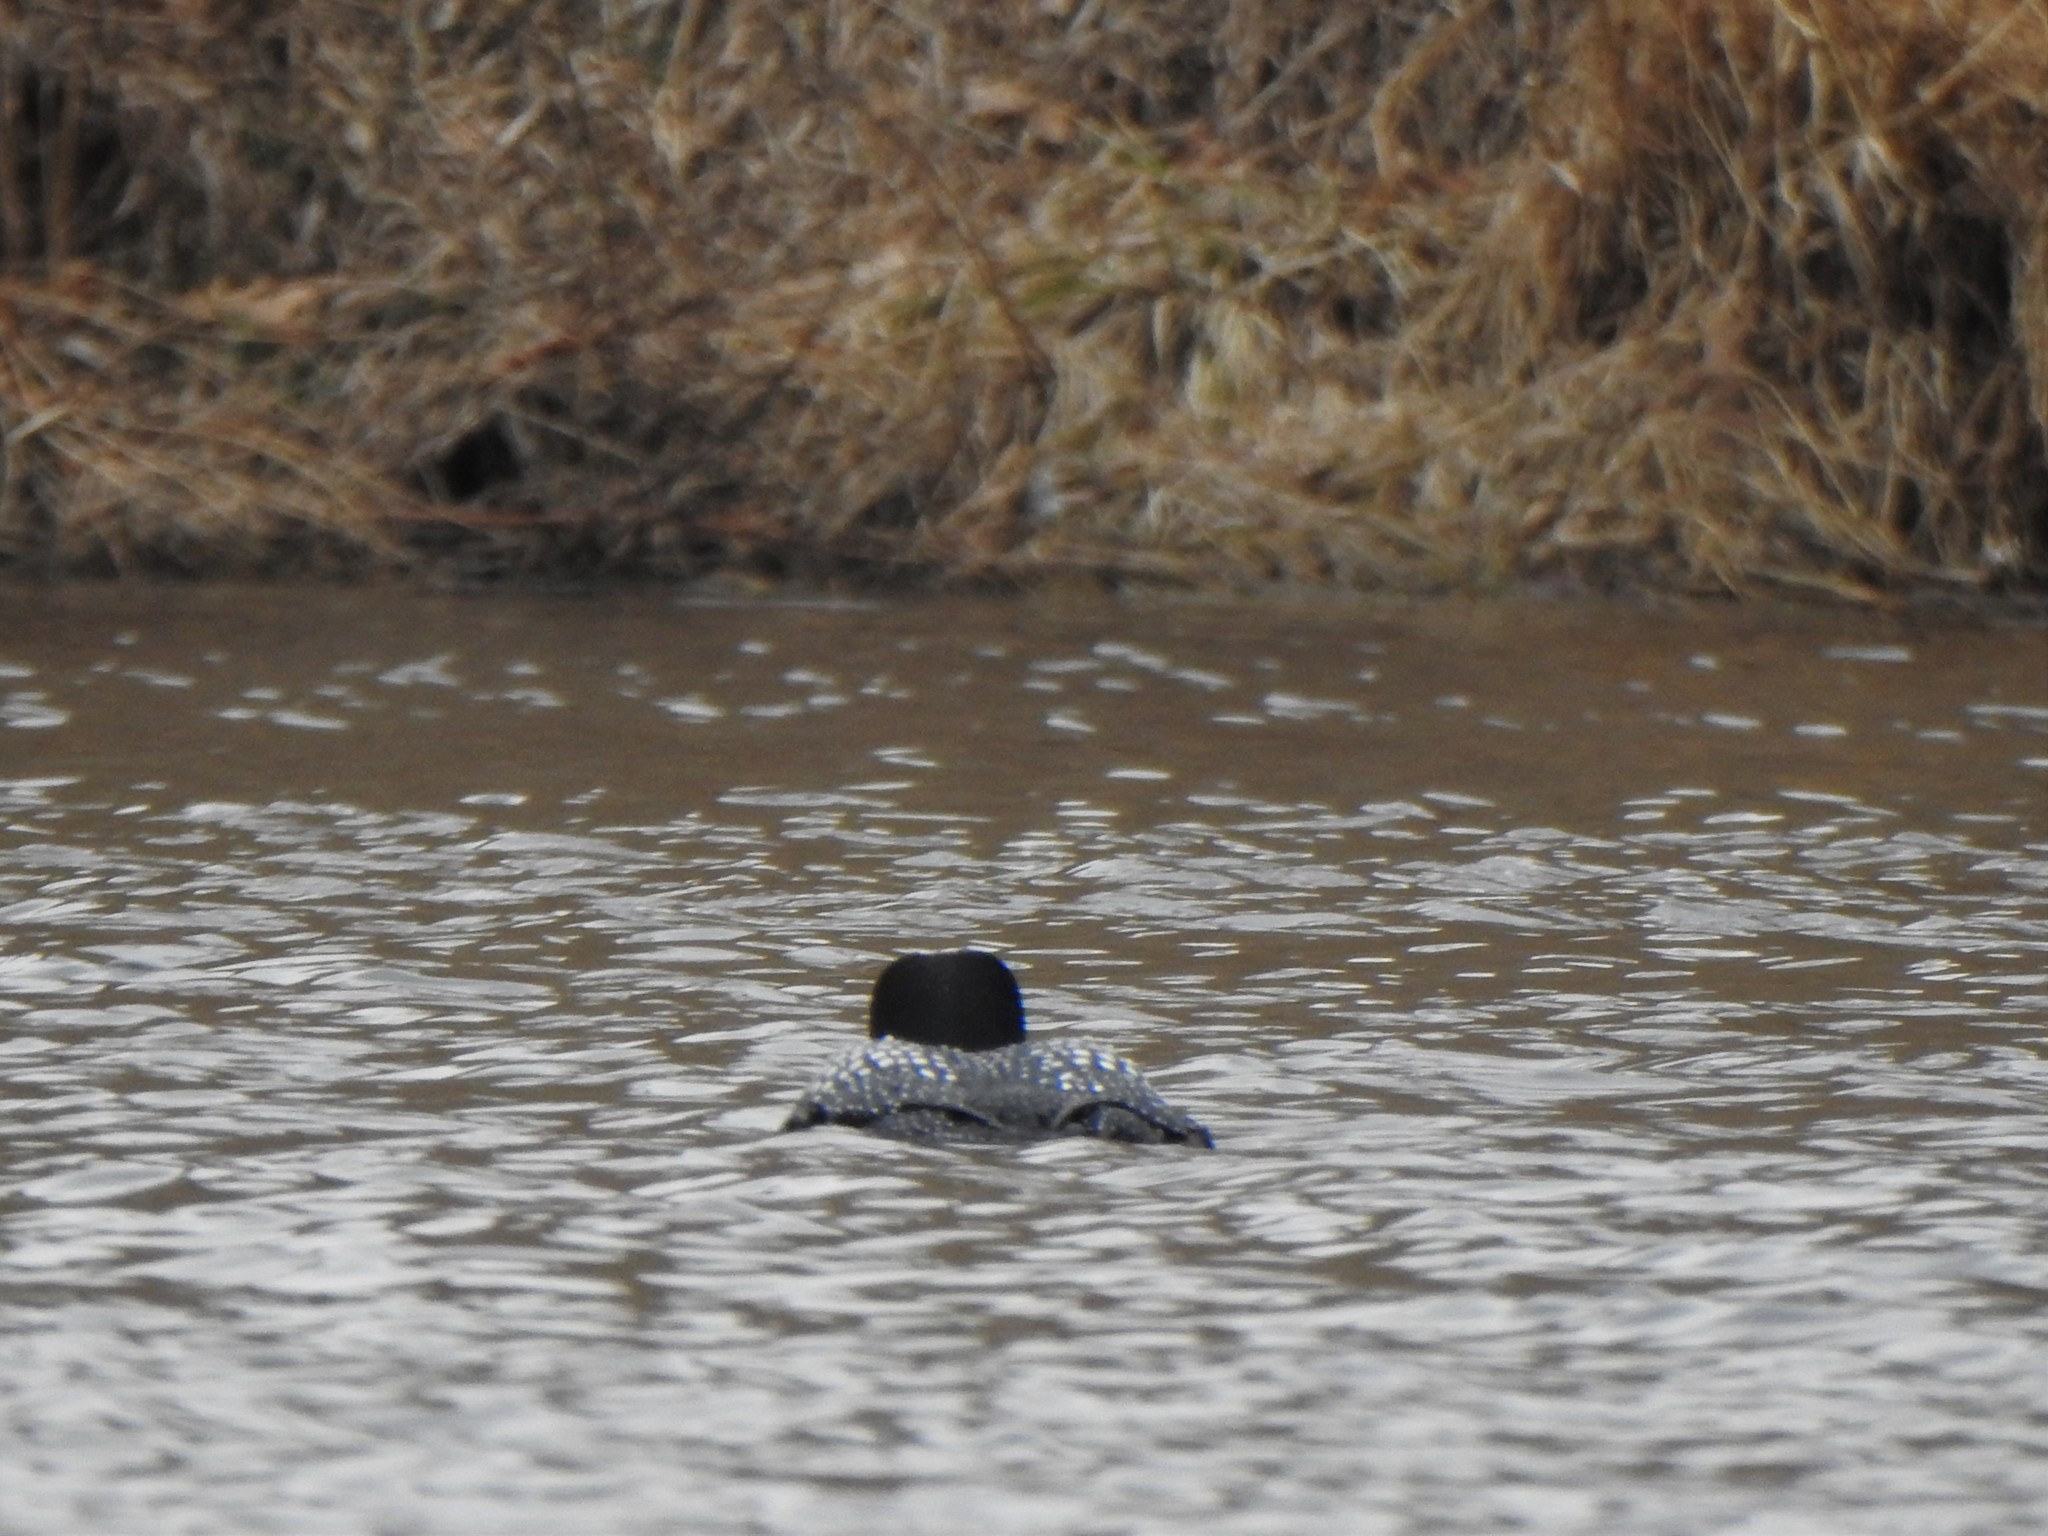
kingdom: Animalia
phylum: Chordata
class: Aves
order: Gaviiformes
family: Gaviidae
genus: Gavia
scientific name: Gavia immer
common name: Common loon
